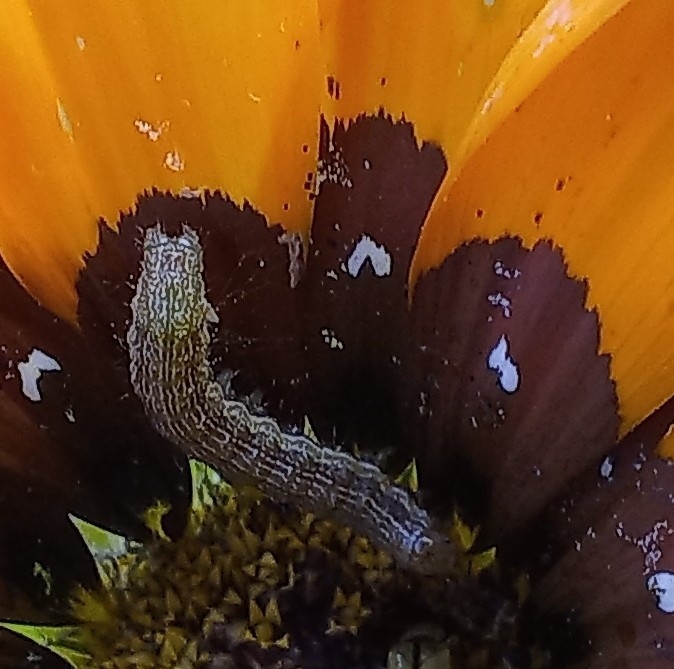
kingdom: Animalia
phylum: Arthropoda
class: Insecta
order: Lepidoptera
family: Noctuidae
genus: Helicoverpa
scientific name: Helicoverpa armigera
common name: Cotton bollworm
